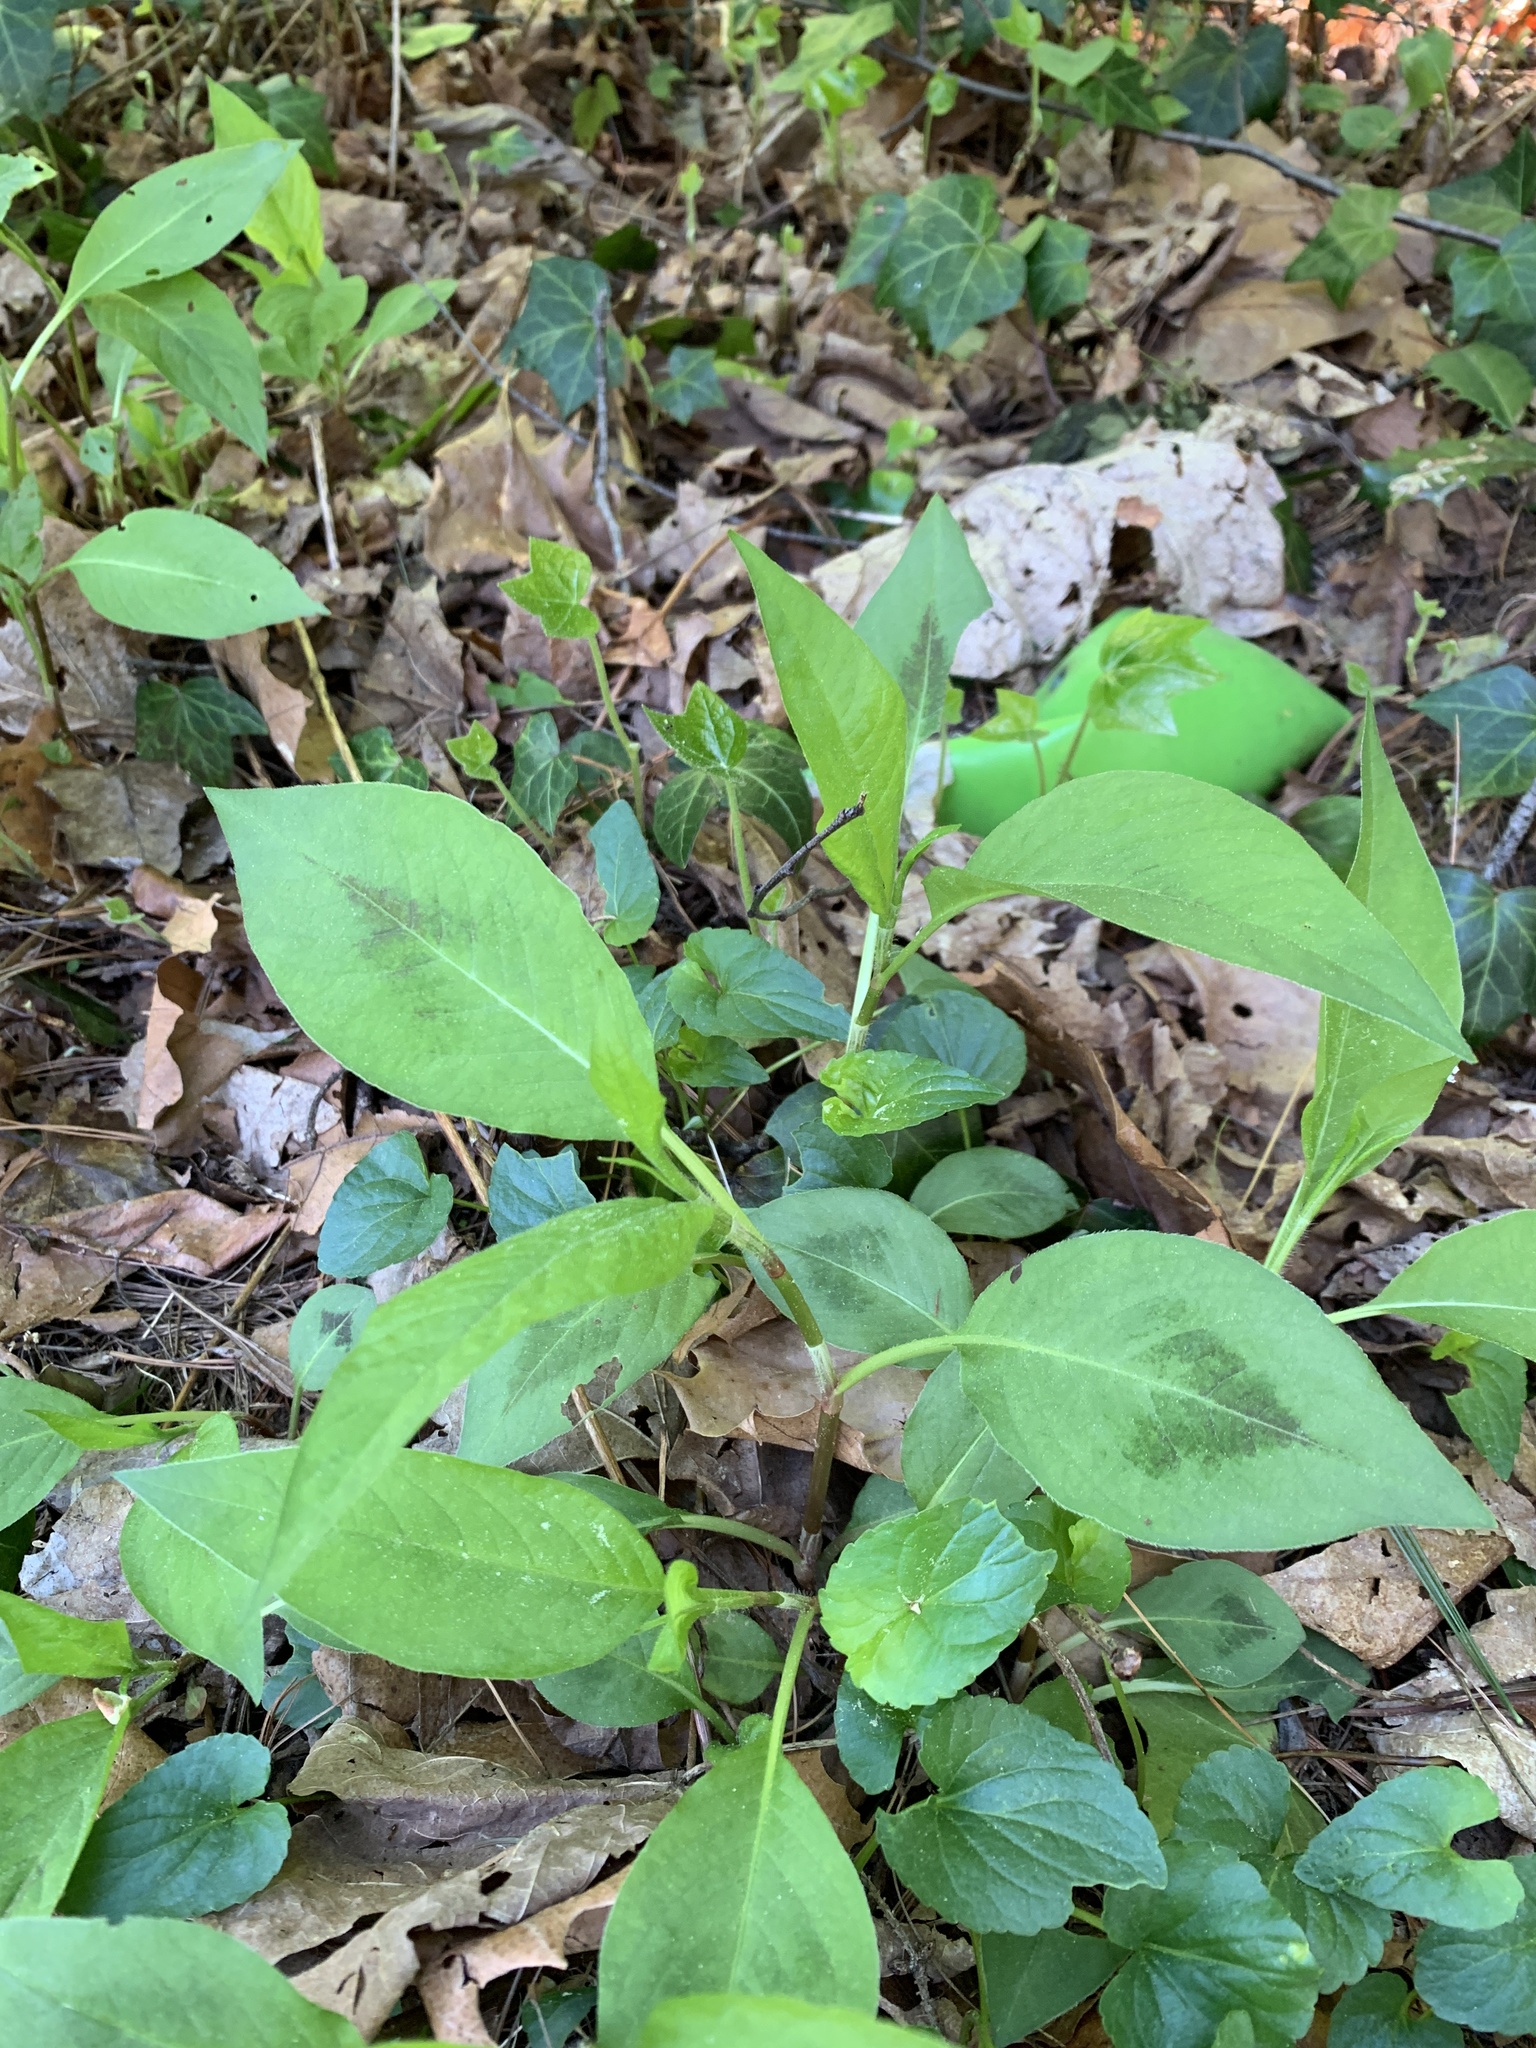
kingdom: Plantae
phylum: Tracheophyta
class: Magnoliopsida
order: Caryophyllales
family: Polygonaceae
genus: Persicaria
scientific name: Persicaria virginiana
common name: Jumpseed
